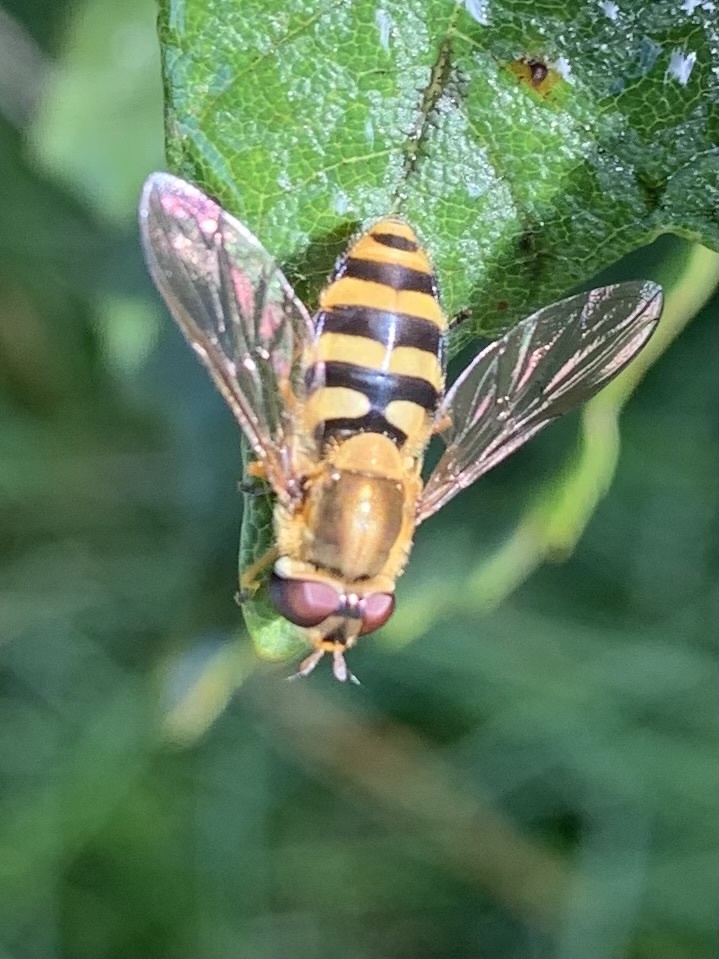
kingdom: Animalia
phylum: Arthropoda
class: Insecta
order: Diptera
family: Syrphidae
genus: Syrphus
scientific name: Syrphus ribesii
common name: Common flower fly
